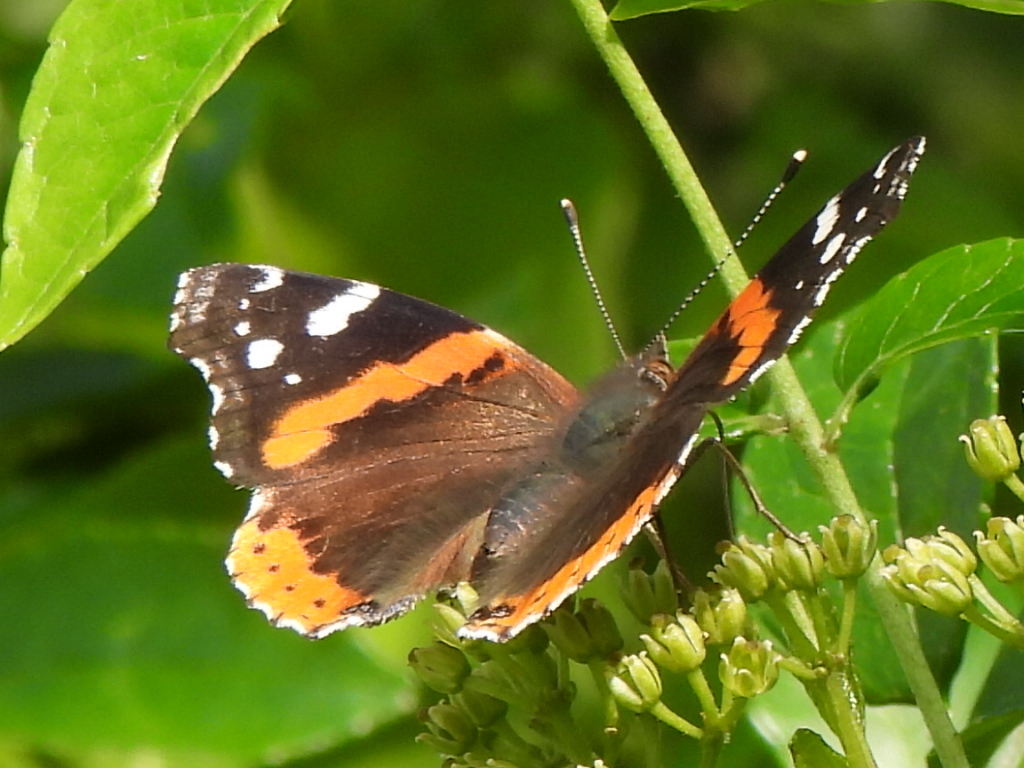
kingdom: Animalia
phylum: Arthropoda
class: Insecta
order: Lepidoptera
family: Nymphalidae
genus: Vanessa
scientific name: Vanessa atalanta
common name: Red admiral
